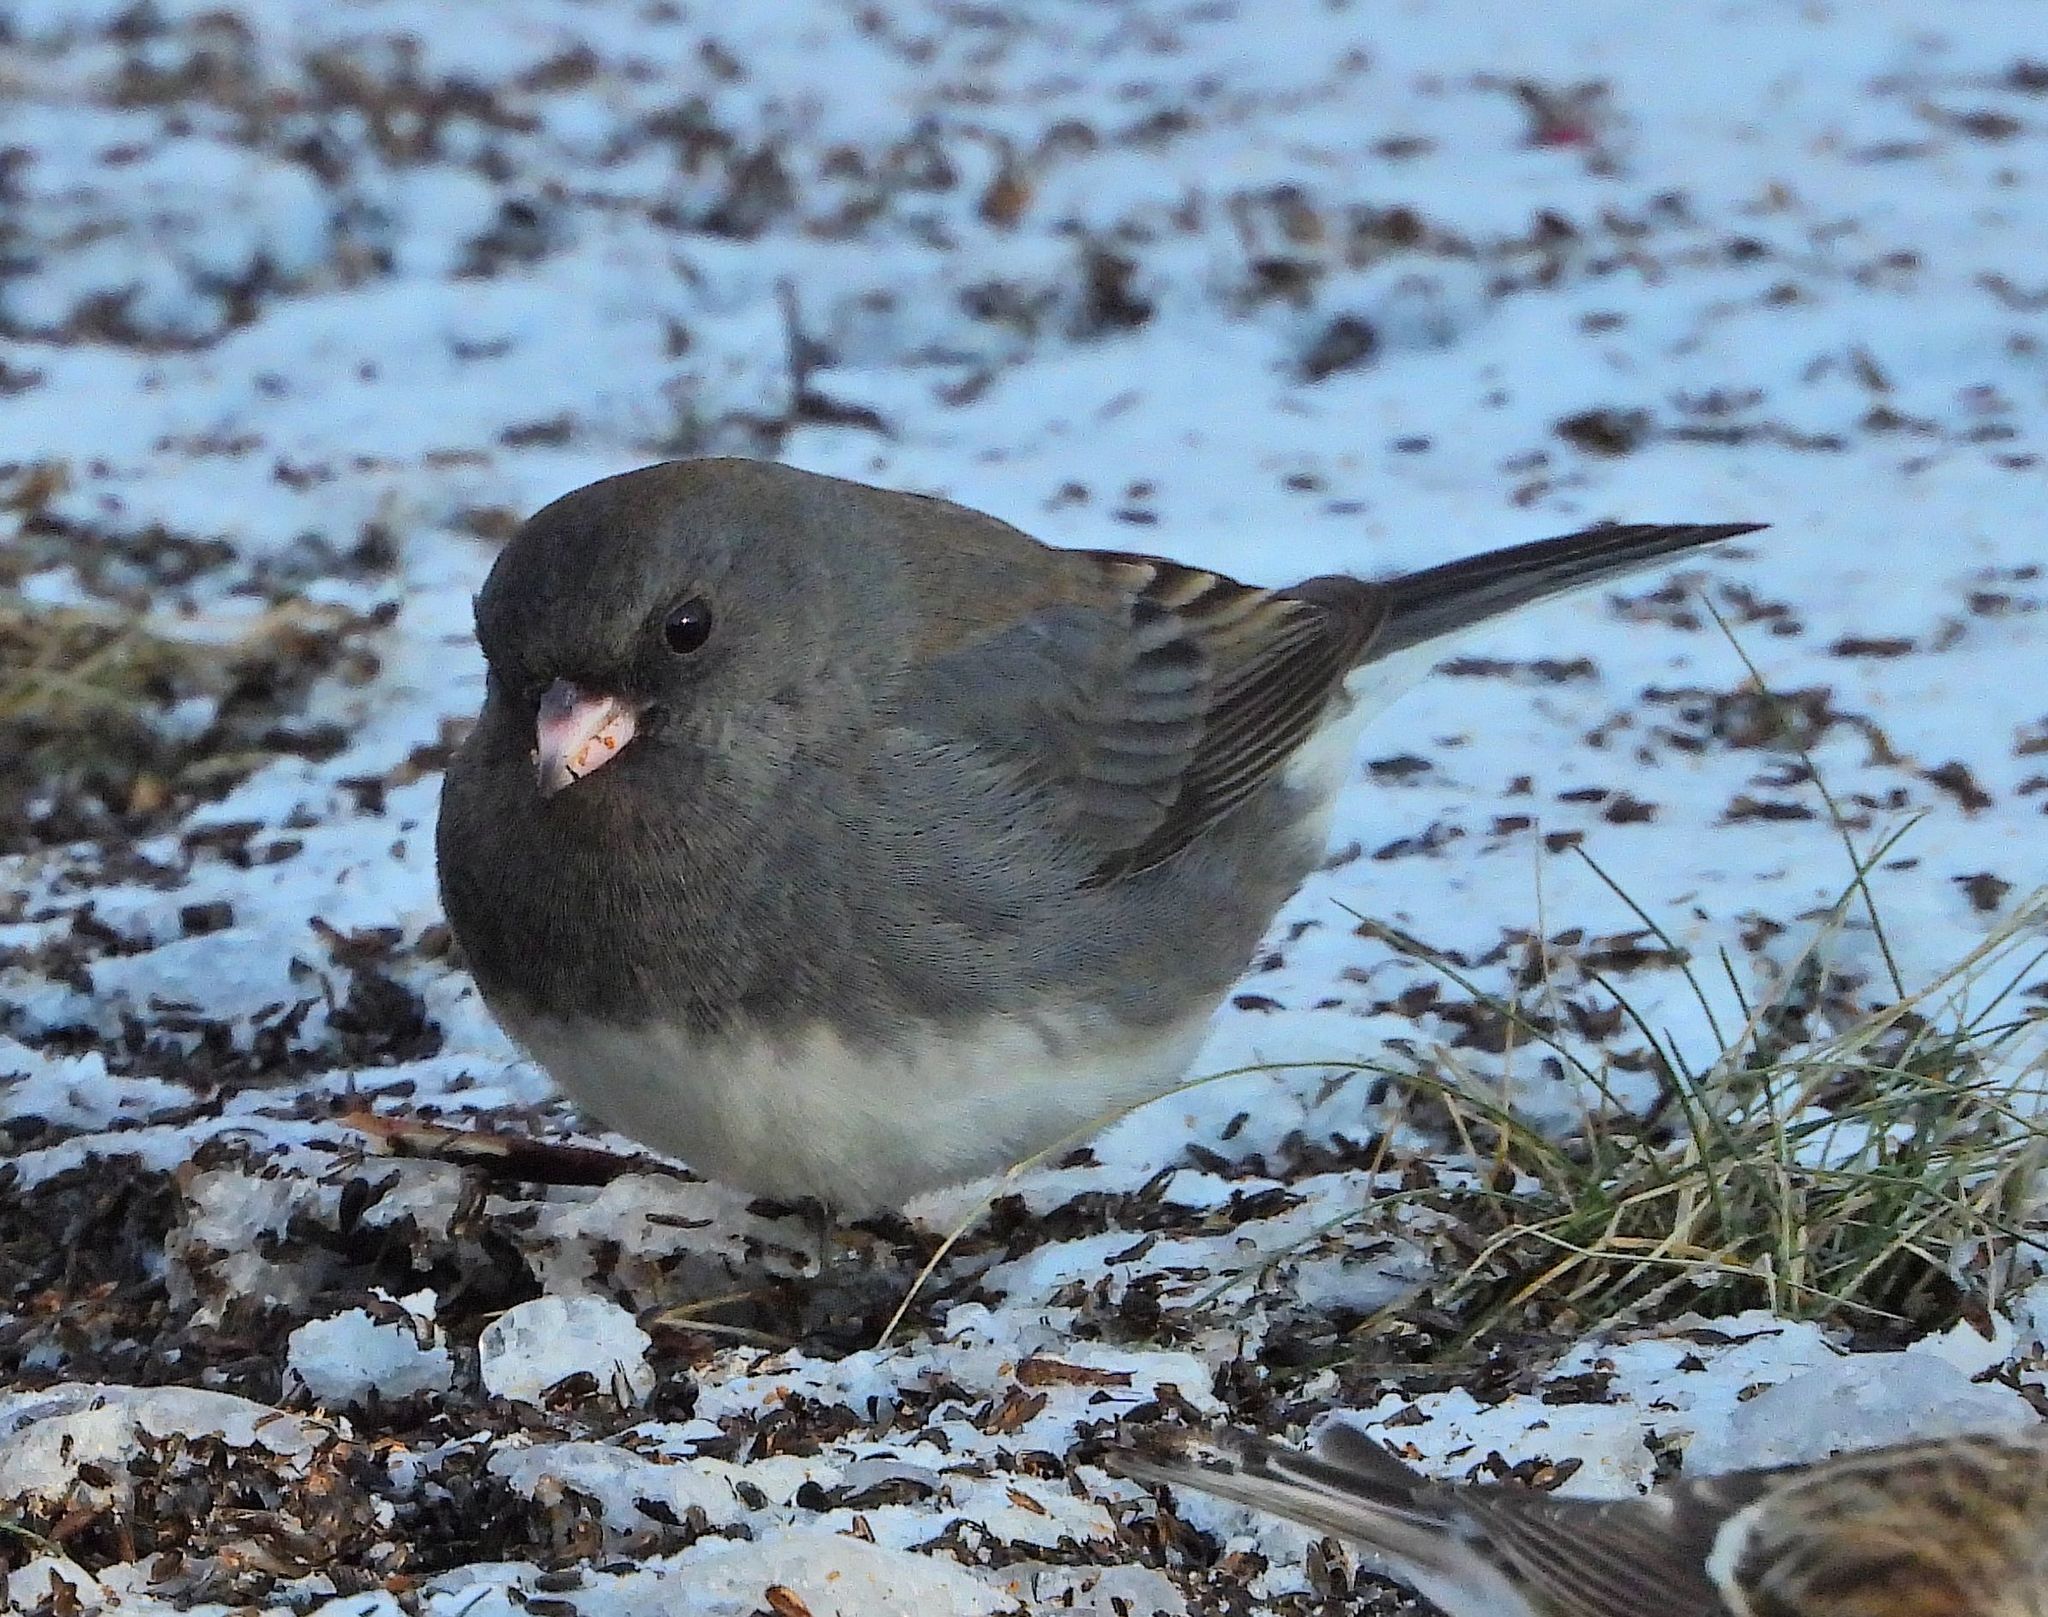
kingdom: Animalia
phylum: Chordata
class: Aves
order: Passeriformes
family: Passerellidae
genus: Junco
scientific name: Junco hyemalis
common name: Dark-eyed junco
